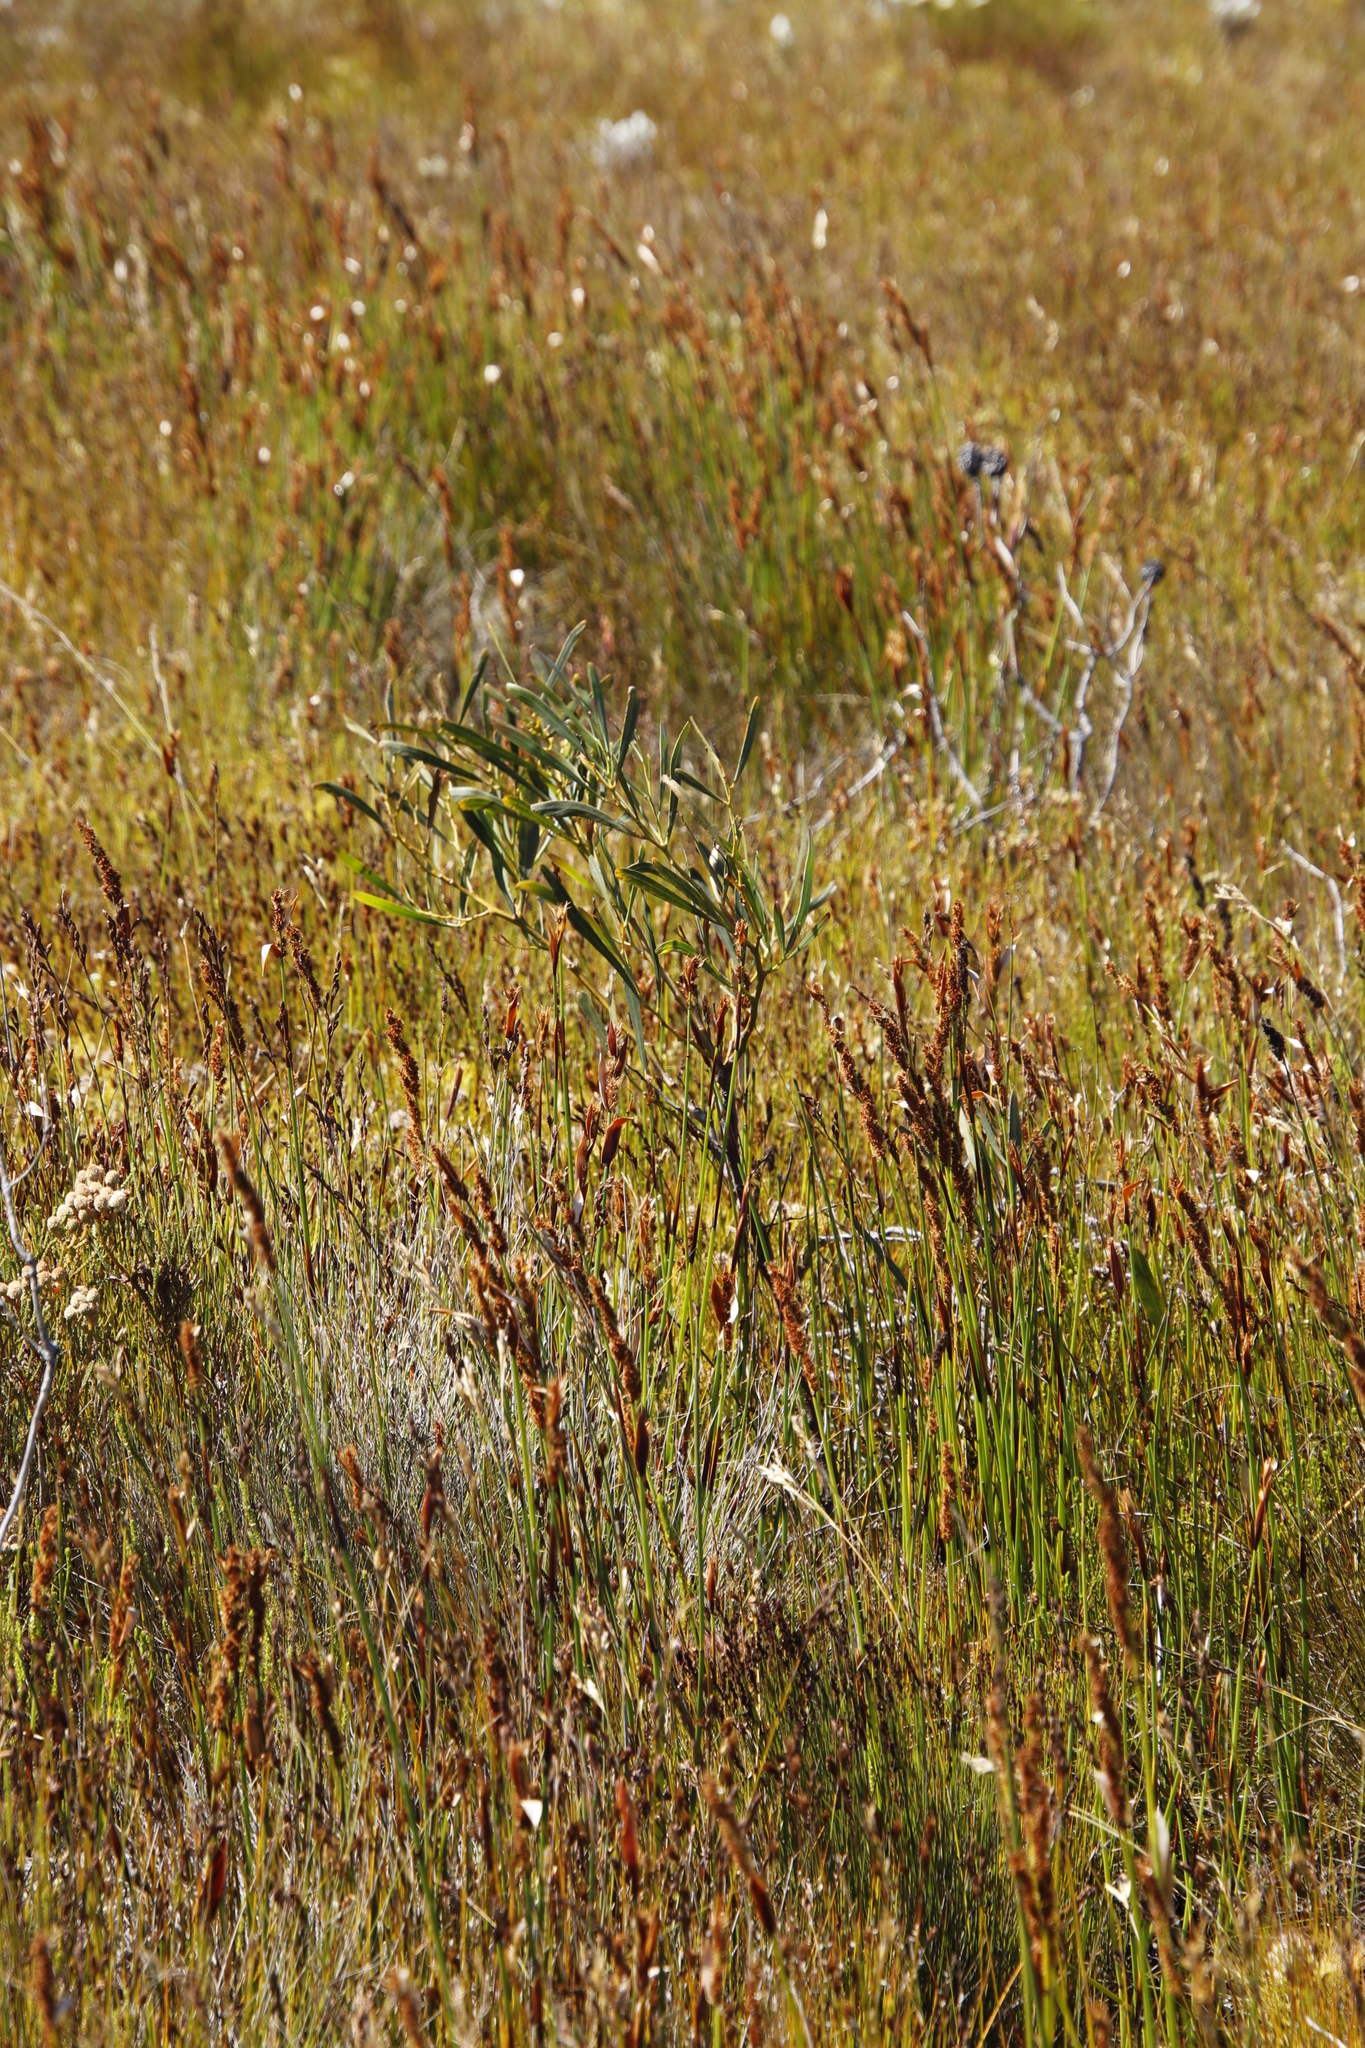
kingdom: Plantae
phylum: Tracheophyta
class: Magnoliopsida
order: Fabales
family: Fabaceae
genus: Acacia
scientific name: Acacia saligna
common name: Orange wattle
